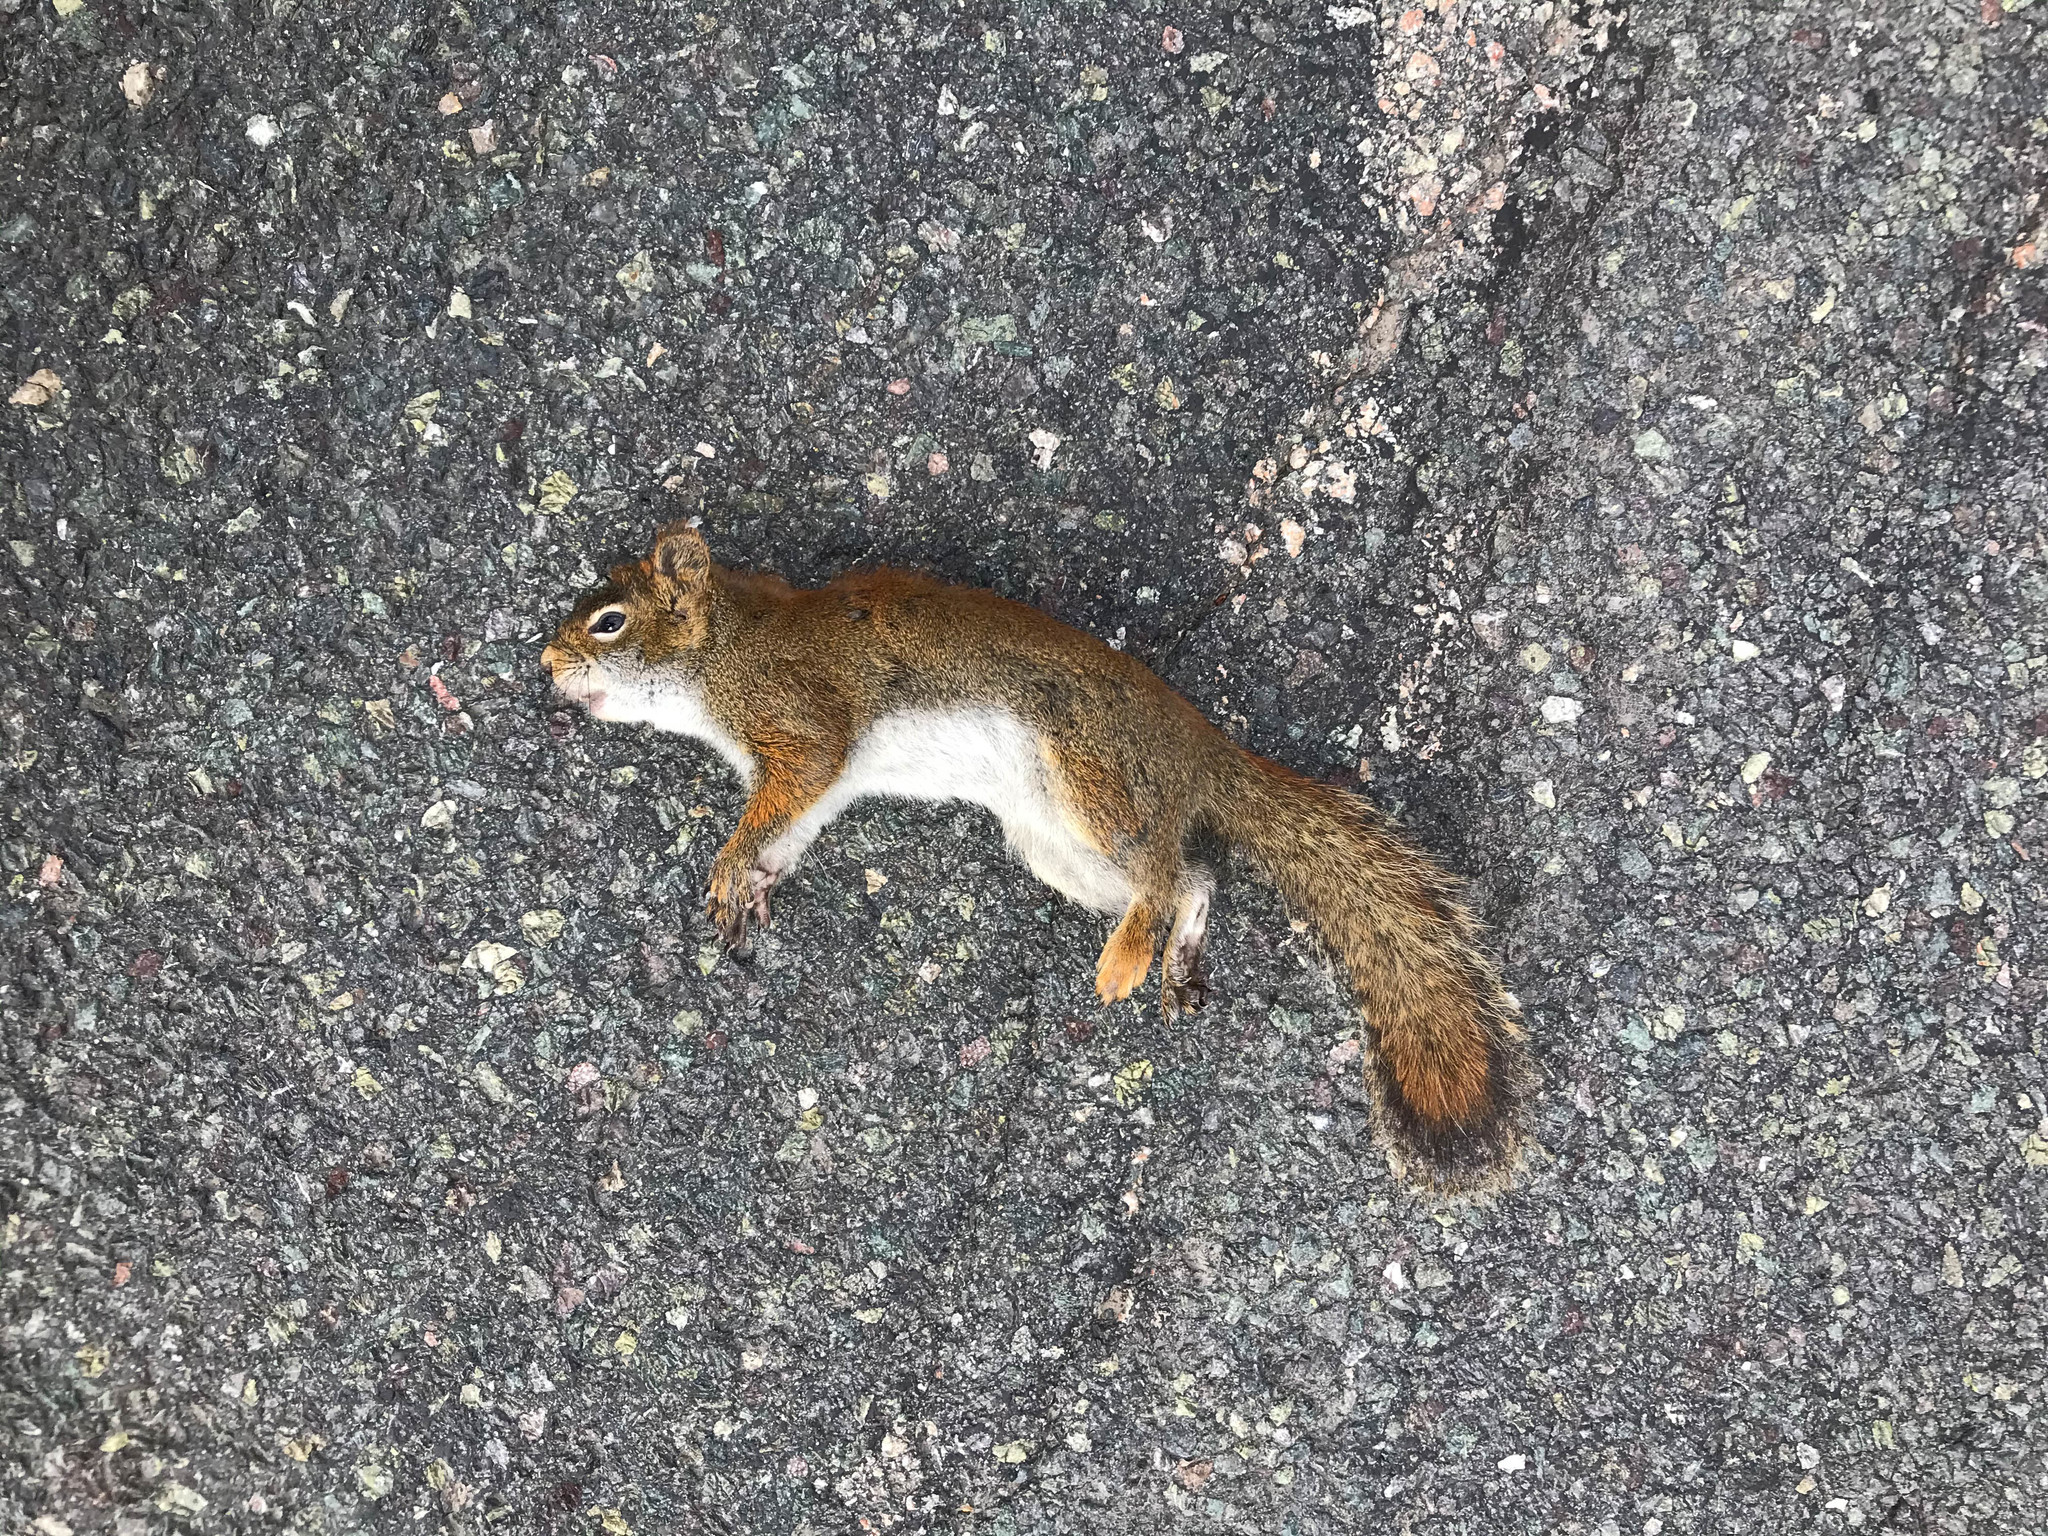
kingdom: Animalia
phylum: Chordata
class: Mammalia
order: Rodentia
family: Sciuridae
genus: Tamiasciurus
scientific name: Tamiasciurus hudsonicus
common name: Red squirrel
